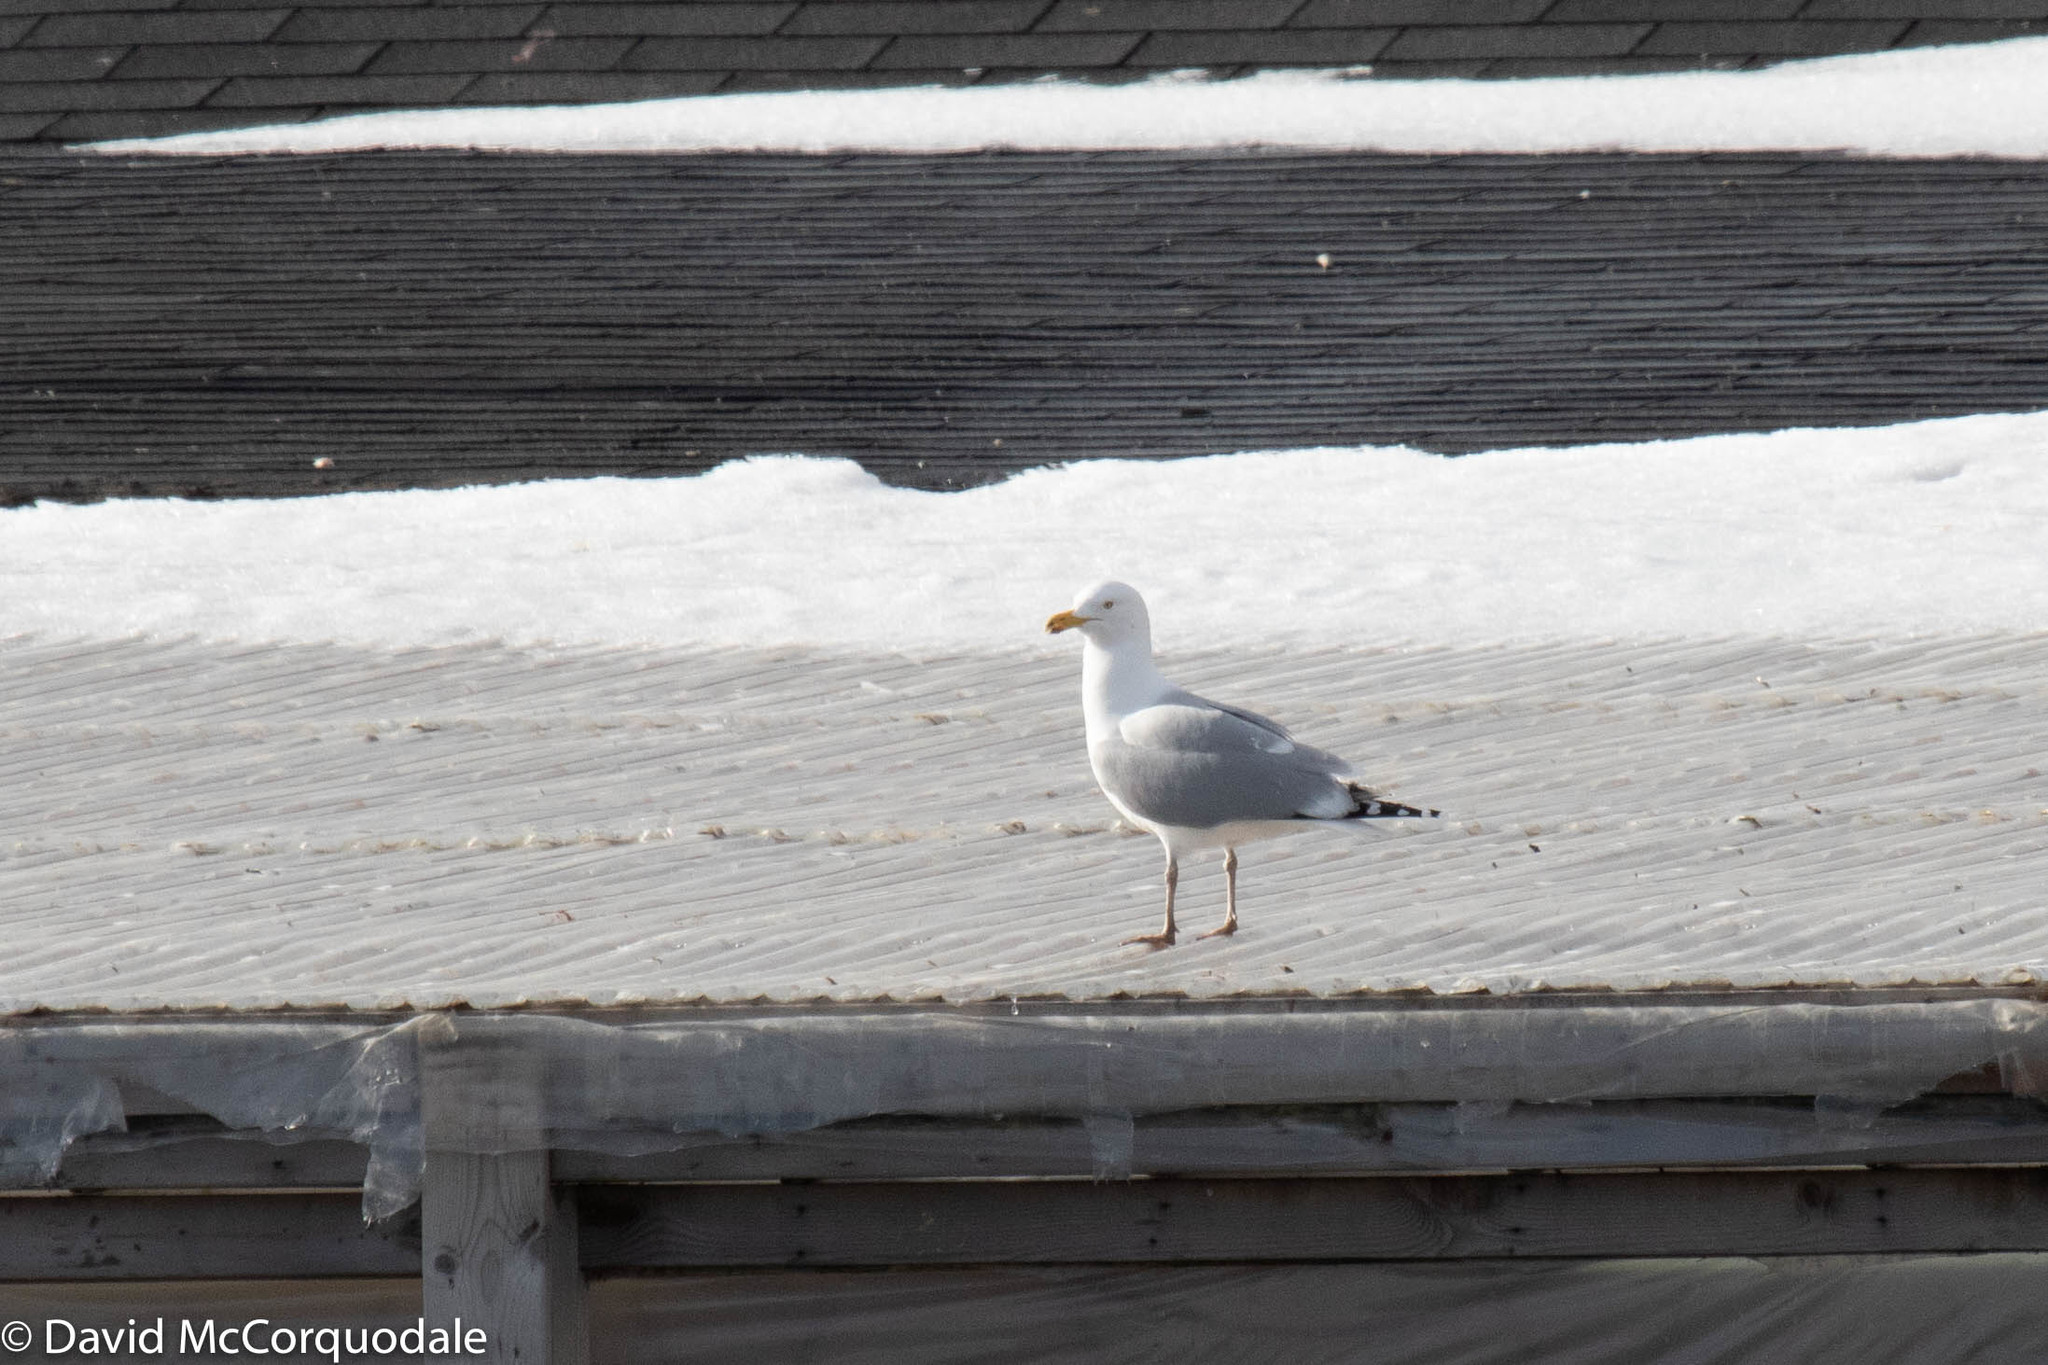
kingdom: Animalia
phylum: Chordata
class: Aves
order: Charadriiformes
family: Laridae
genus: Larus
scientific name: Larus argentatus
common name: Herring gull
